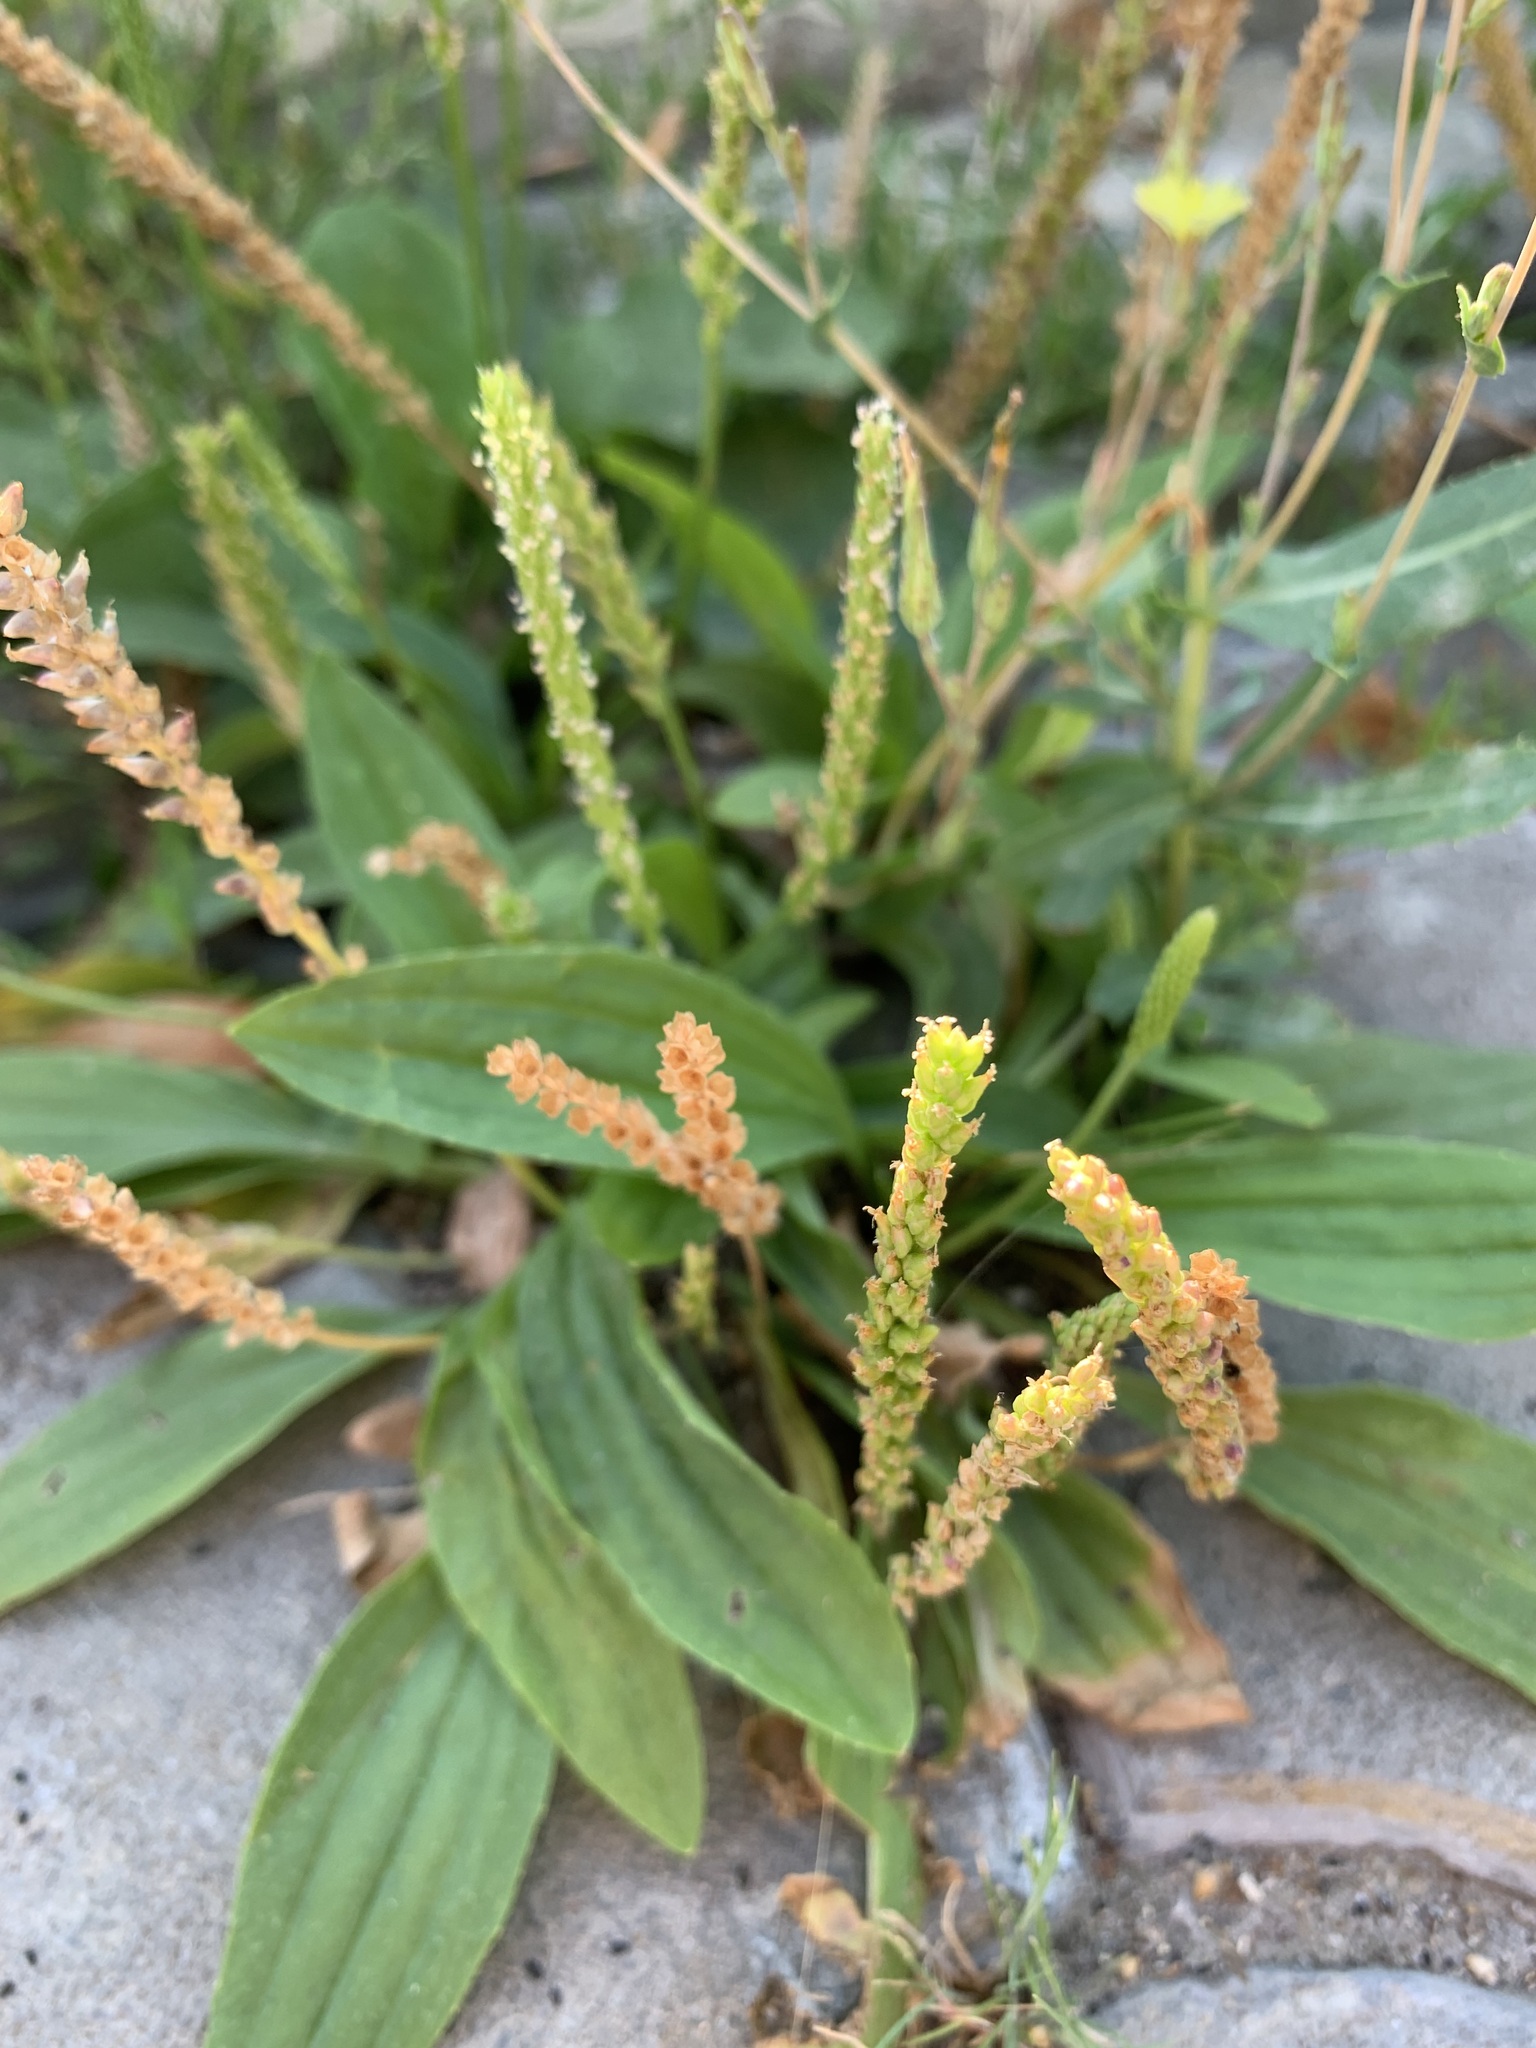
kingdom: Plantae
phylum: Tracheophyta
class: Magnoliopsida
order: Lamiales
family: Plantaginaceae
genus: Plantago
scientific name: Plantago depressa
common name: Depressed plantain
